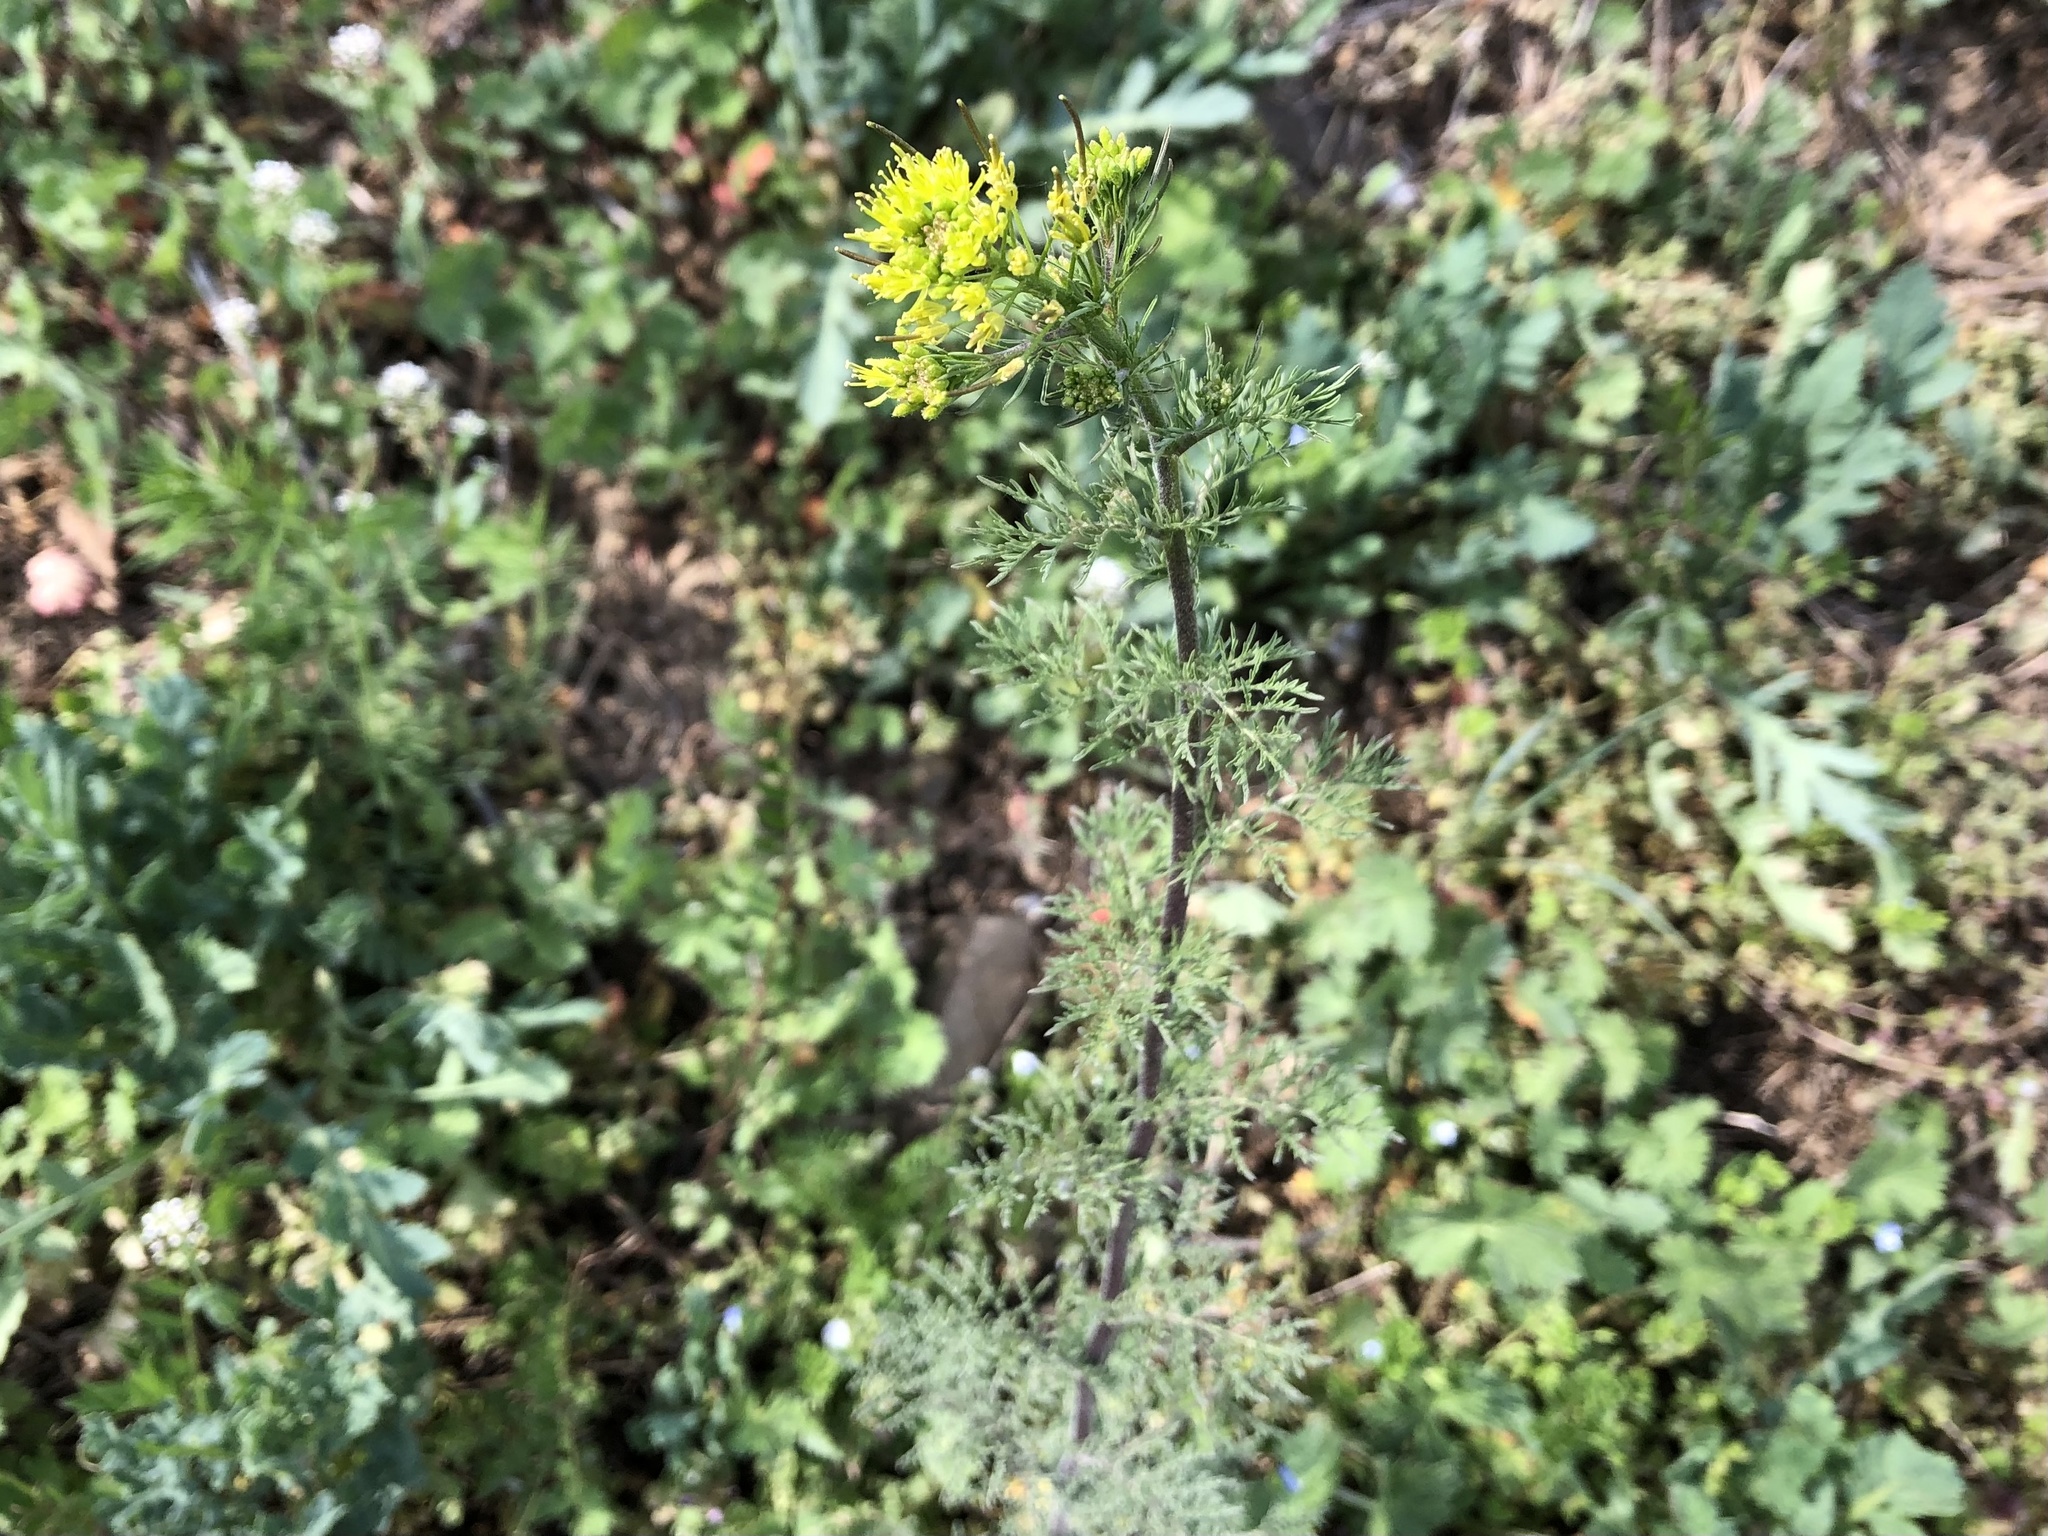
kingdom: Plantae
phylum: Tracheophyta
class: Magnoliopsida
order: Brassicales
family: Brassicaceae
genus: Descurainia
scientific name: Descurainia sophia
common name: Flixweed
